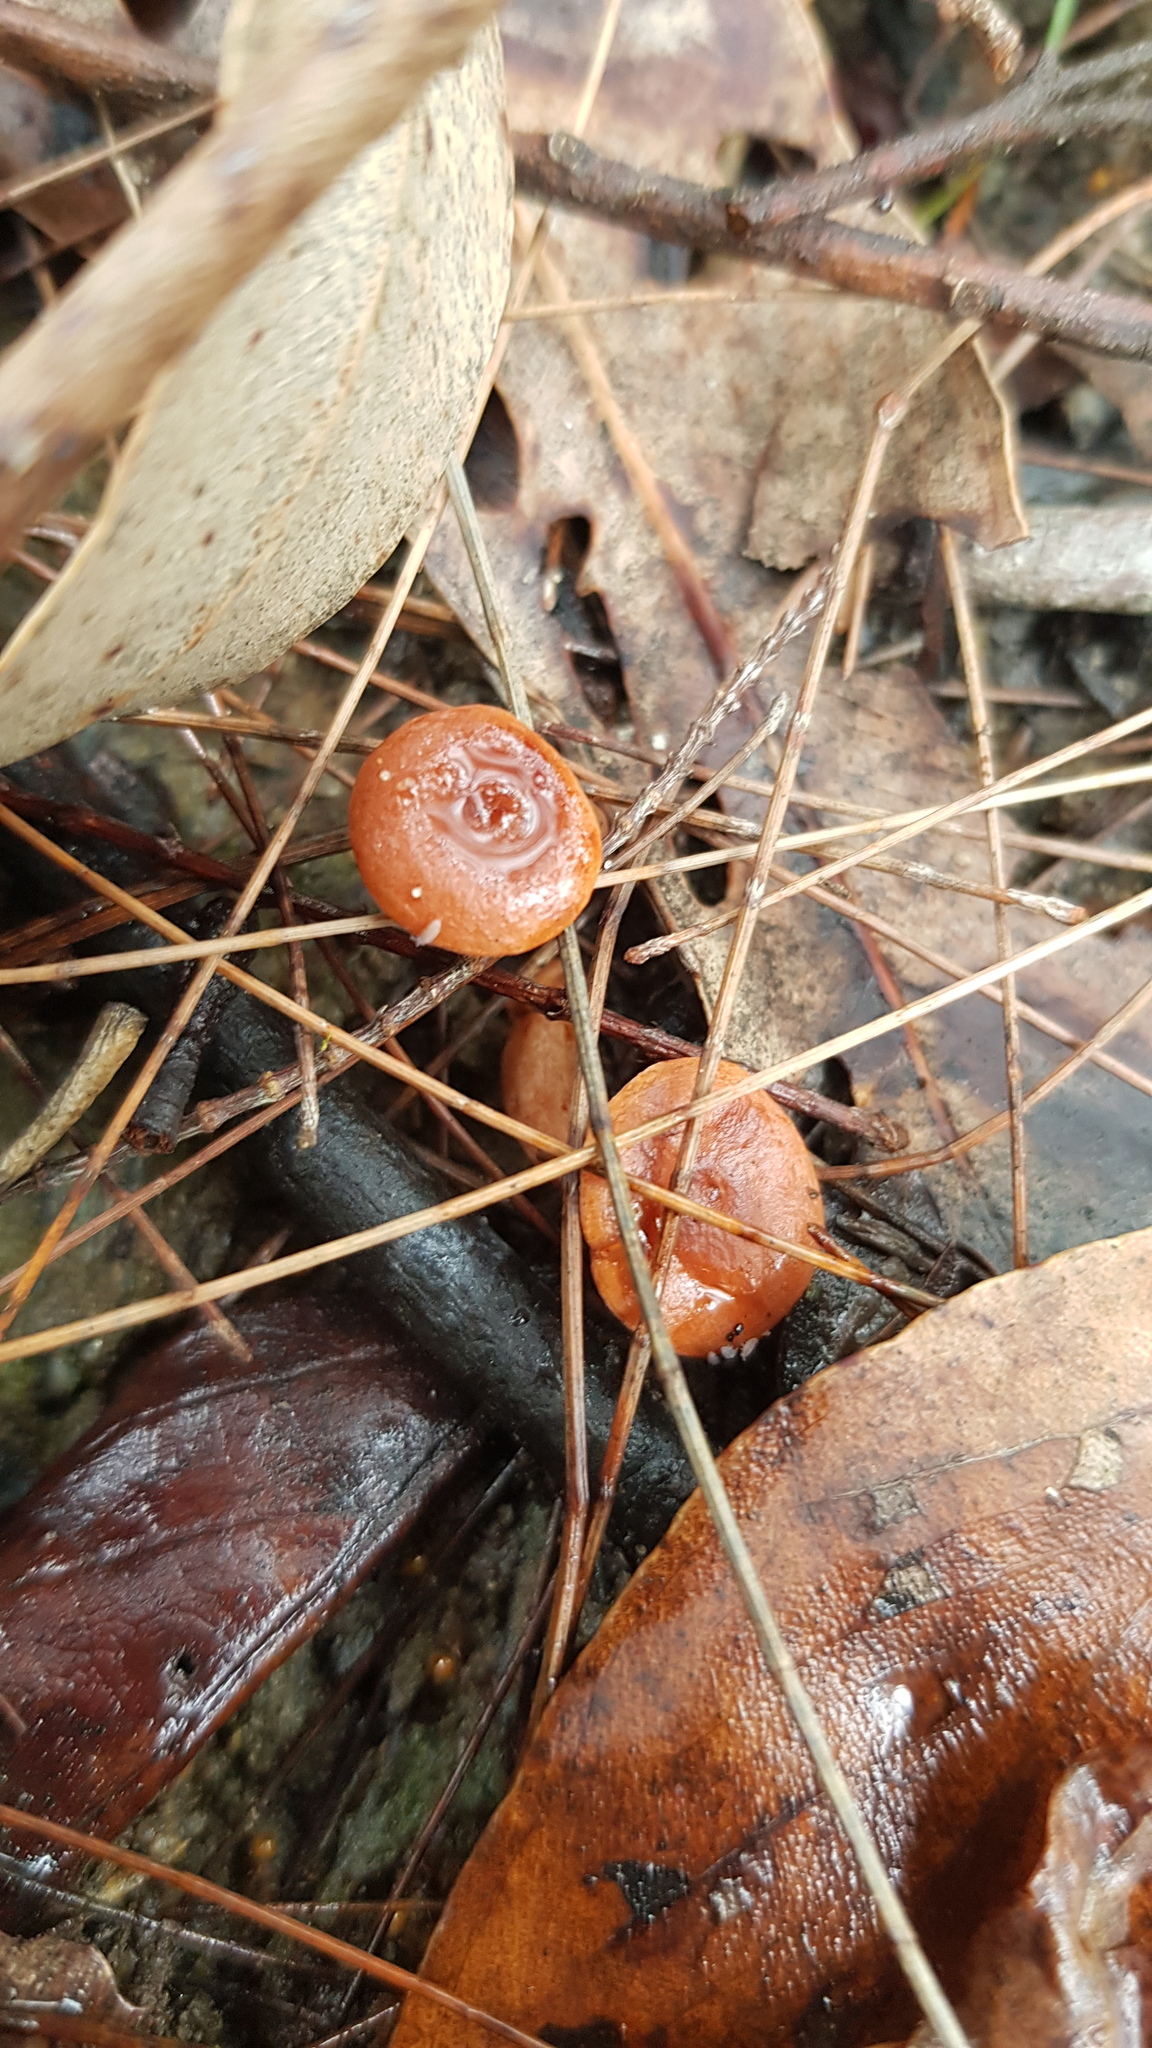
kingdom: Fungi
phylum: Basidiomycota
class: Agaricomycetes
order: Russulales
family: Russulaceae
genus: Lactarius
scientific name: Lactarius eucalypti
